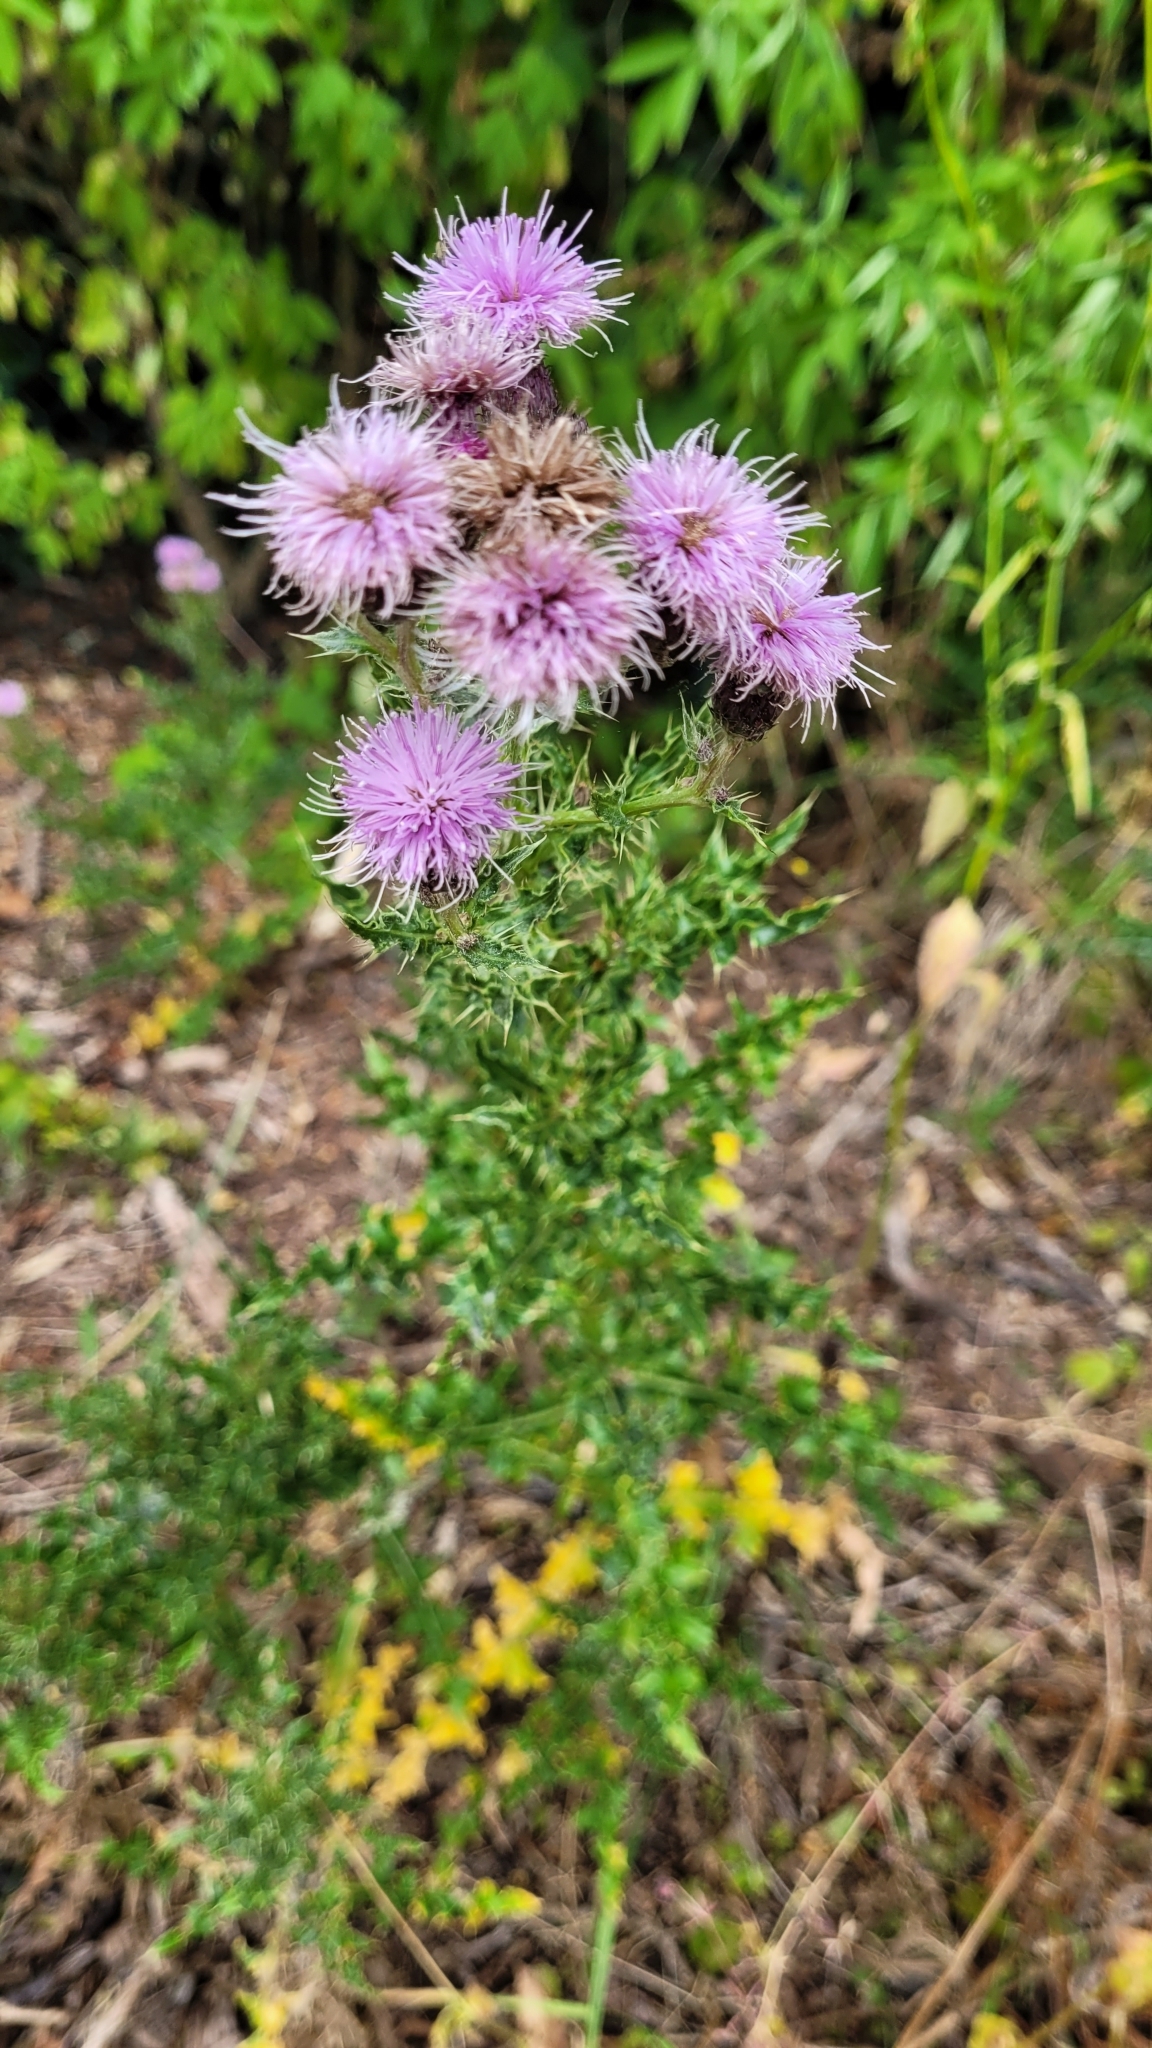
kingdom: Plantae
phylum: Tracheophyta
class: Magnoliopsida
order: Asterales
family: Asteraceae
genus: Cirsium
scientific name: Cirsium arvense
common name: Creeping thistle
